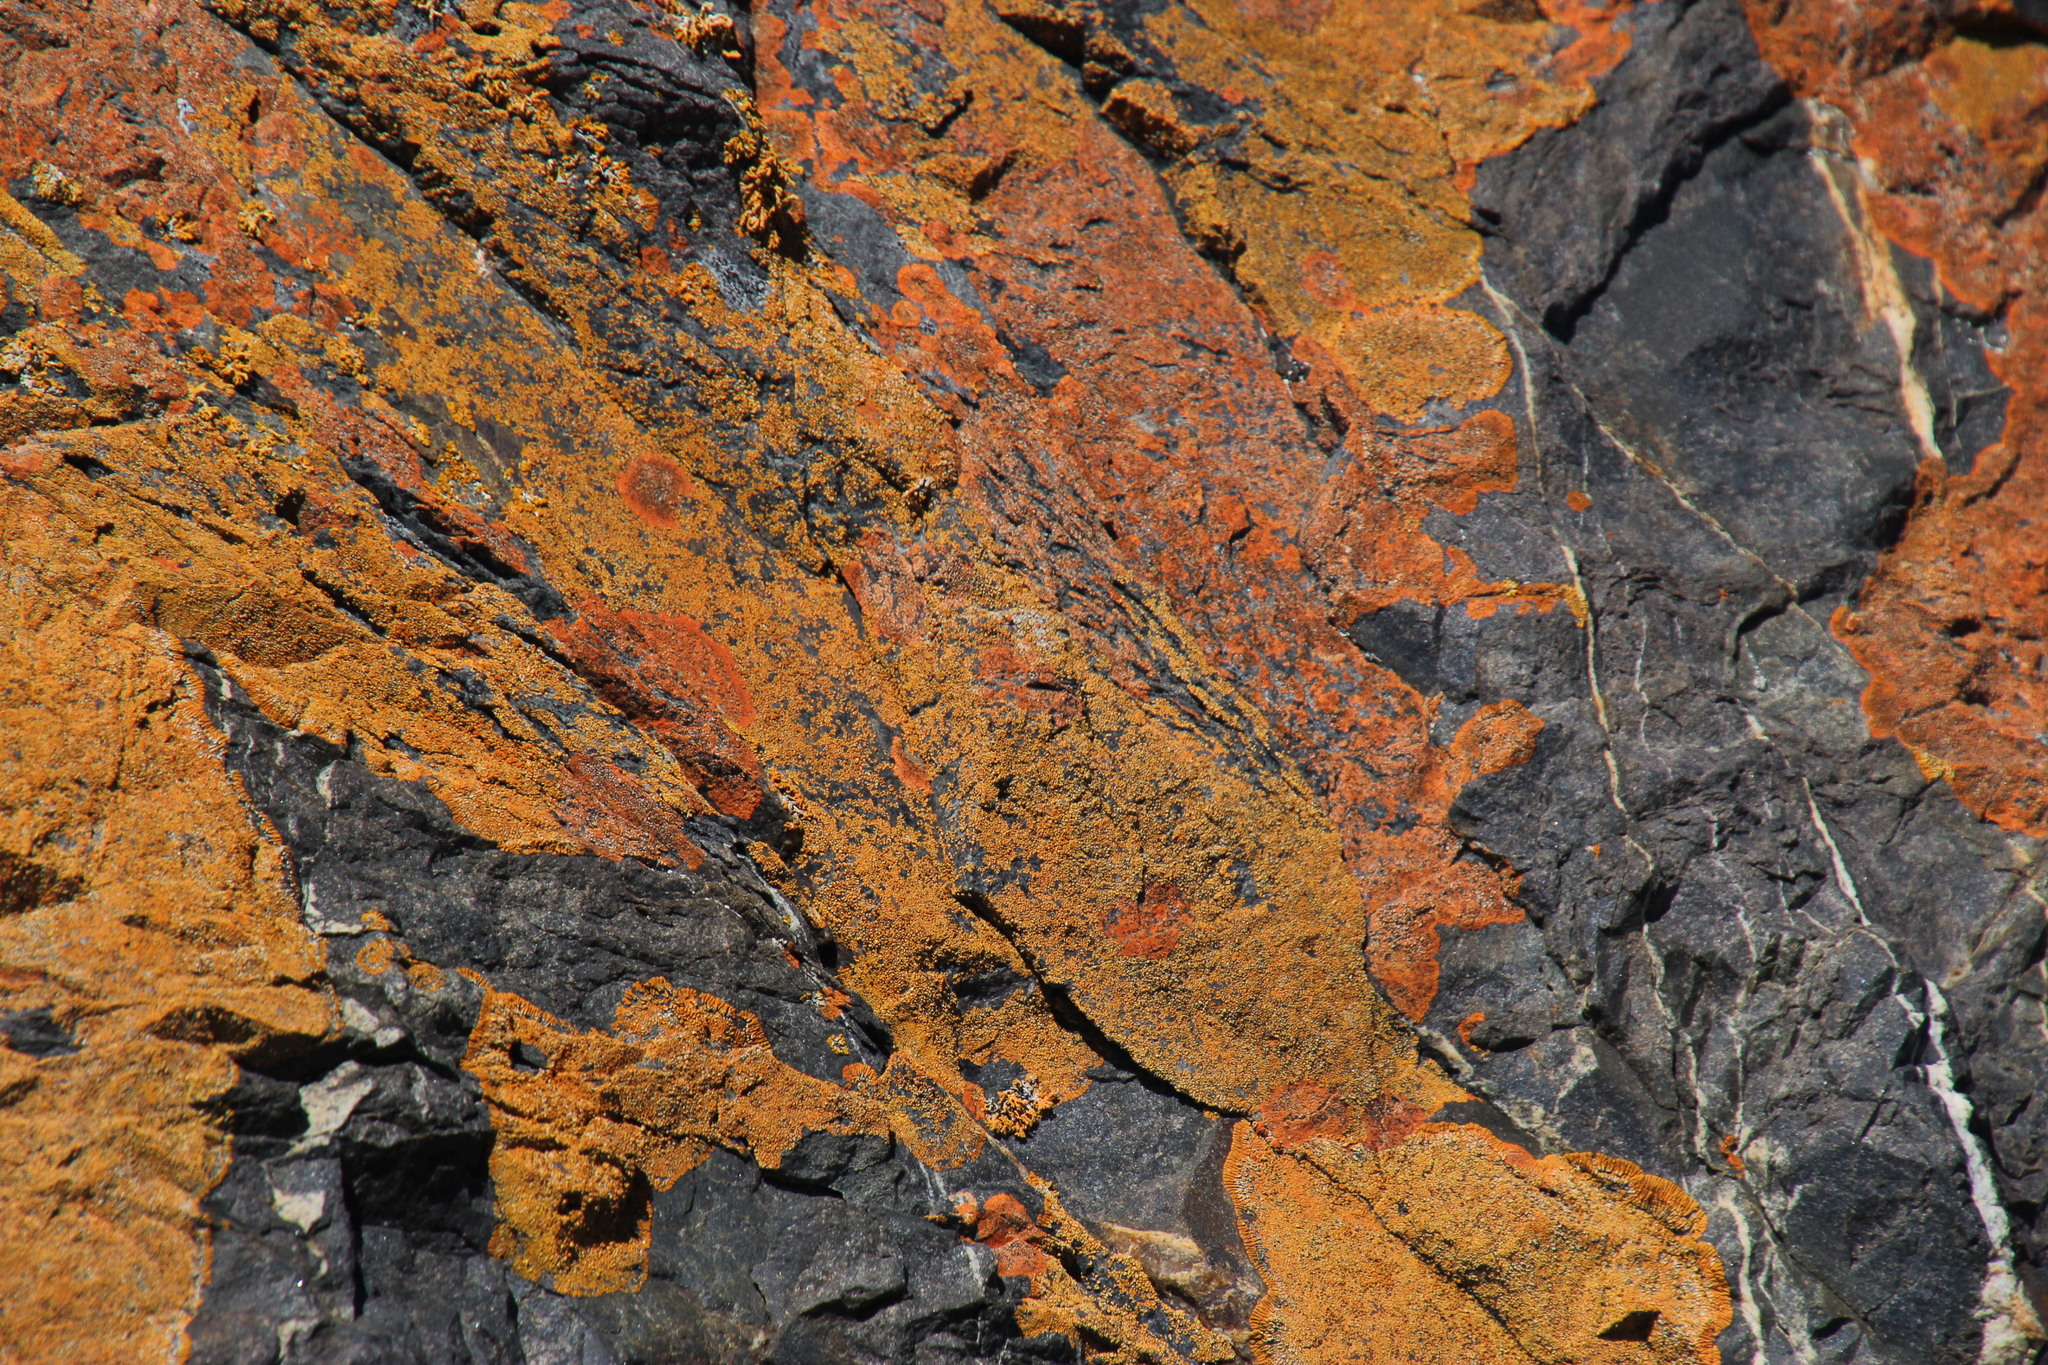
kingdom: Fungi
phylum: Ascomycota
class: Lecanoromycetes
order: Teloschistales
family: Teloschistaceae
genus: Xanthoria
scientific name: Xanthoria elegans
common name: Elegant sunburst lichen
